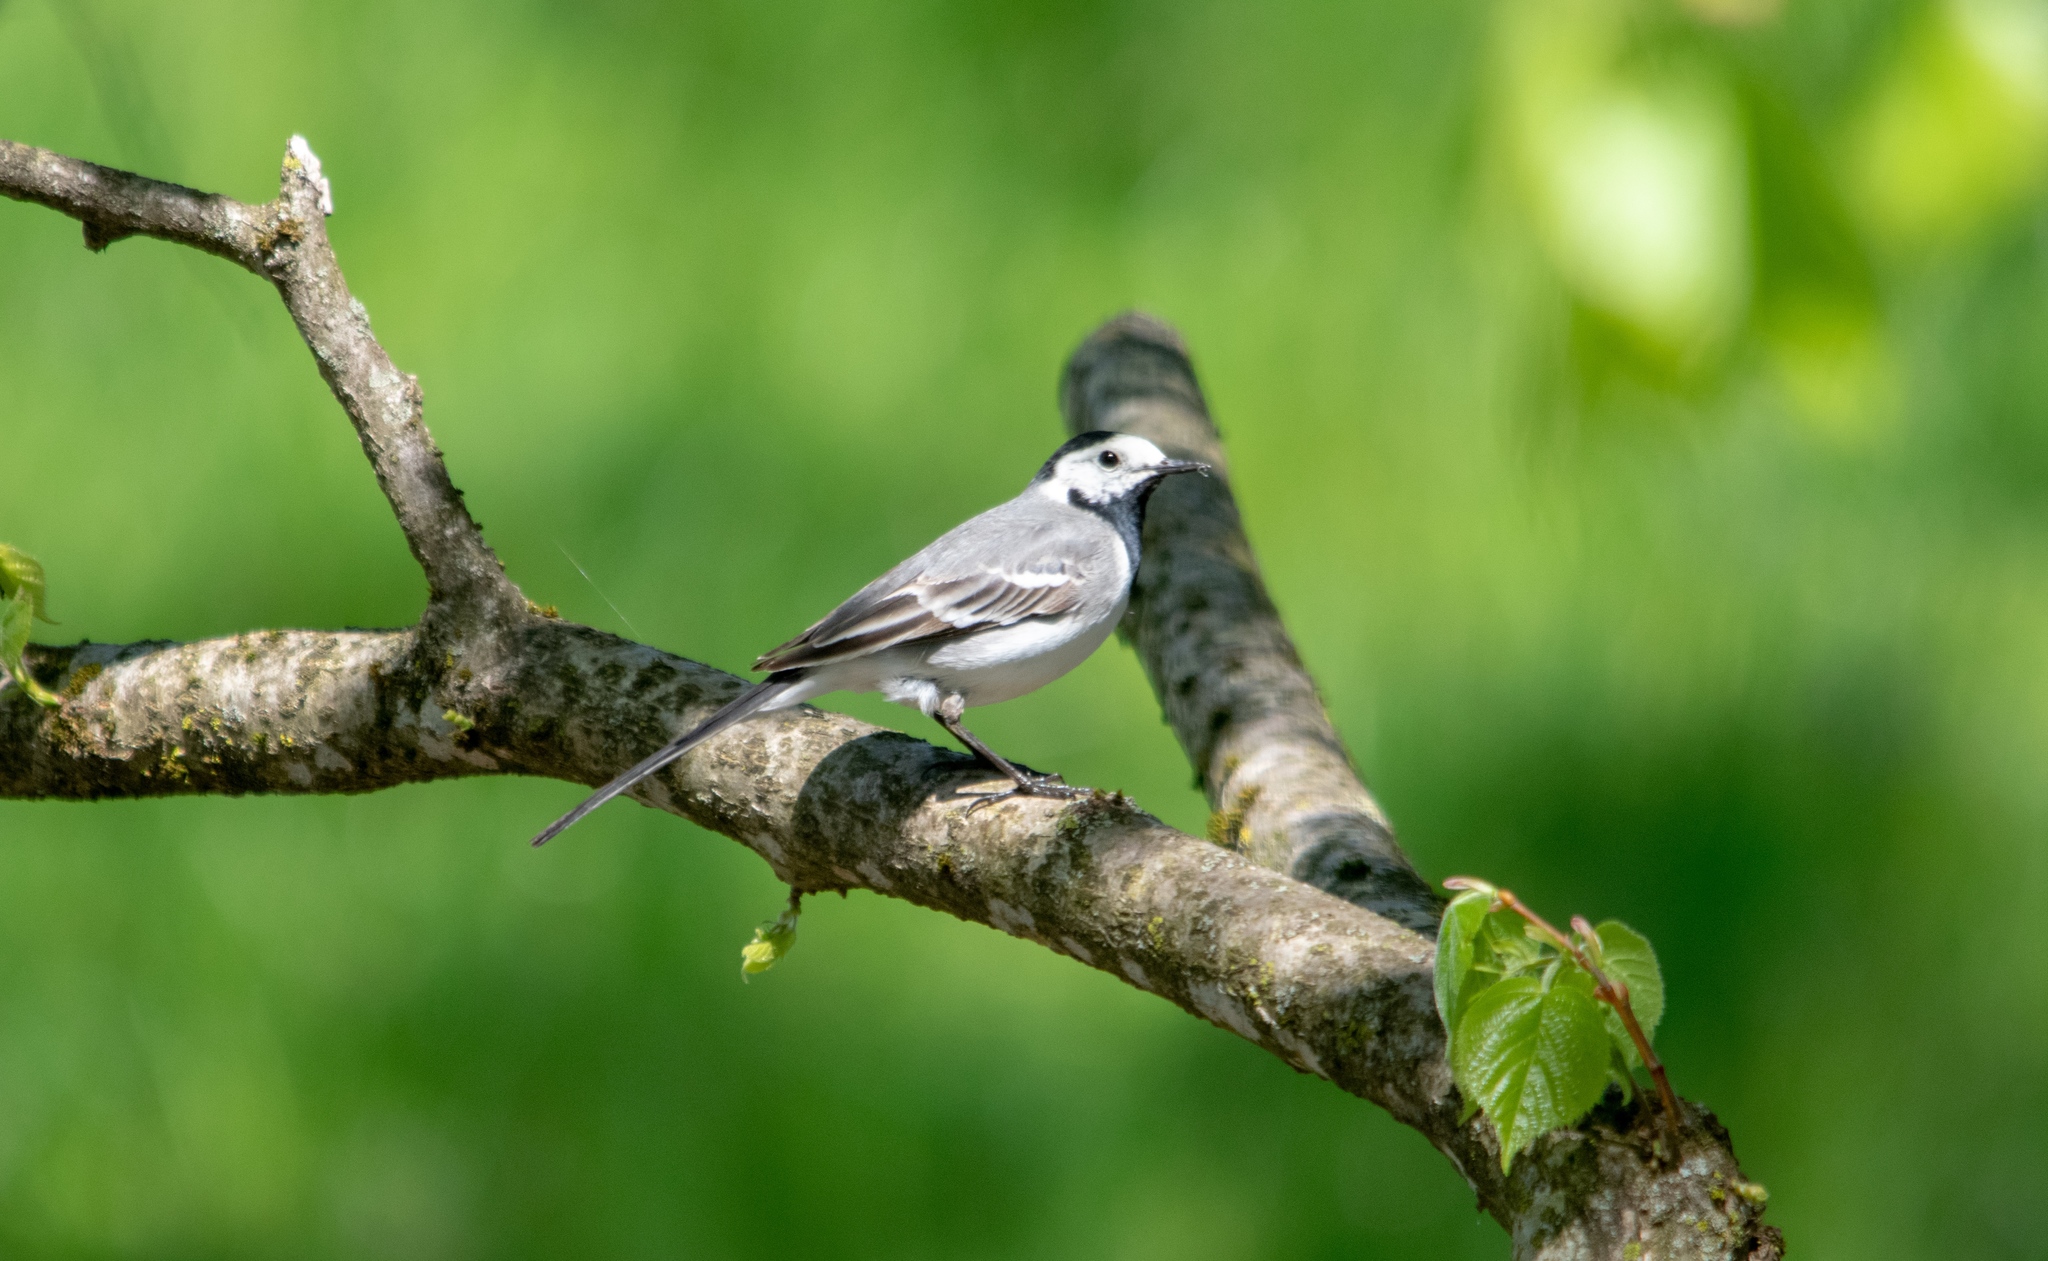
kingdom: Animalia
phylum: Chordata
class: Aves
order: Passeriformes
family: Motacillidae
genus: Motacilla
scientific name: Motacilla alba
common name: White wagtail
